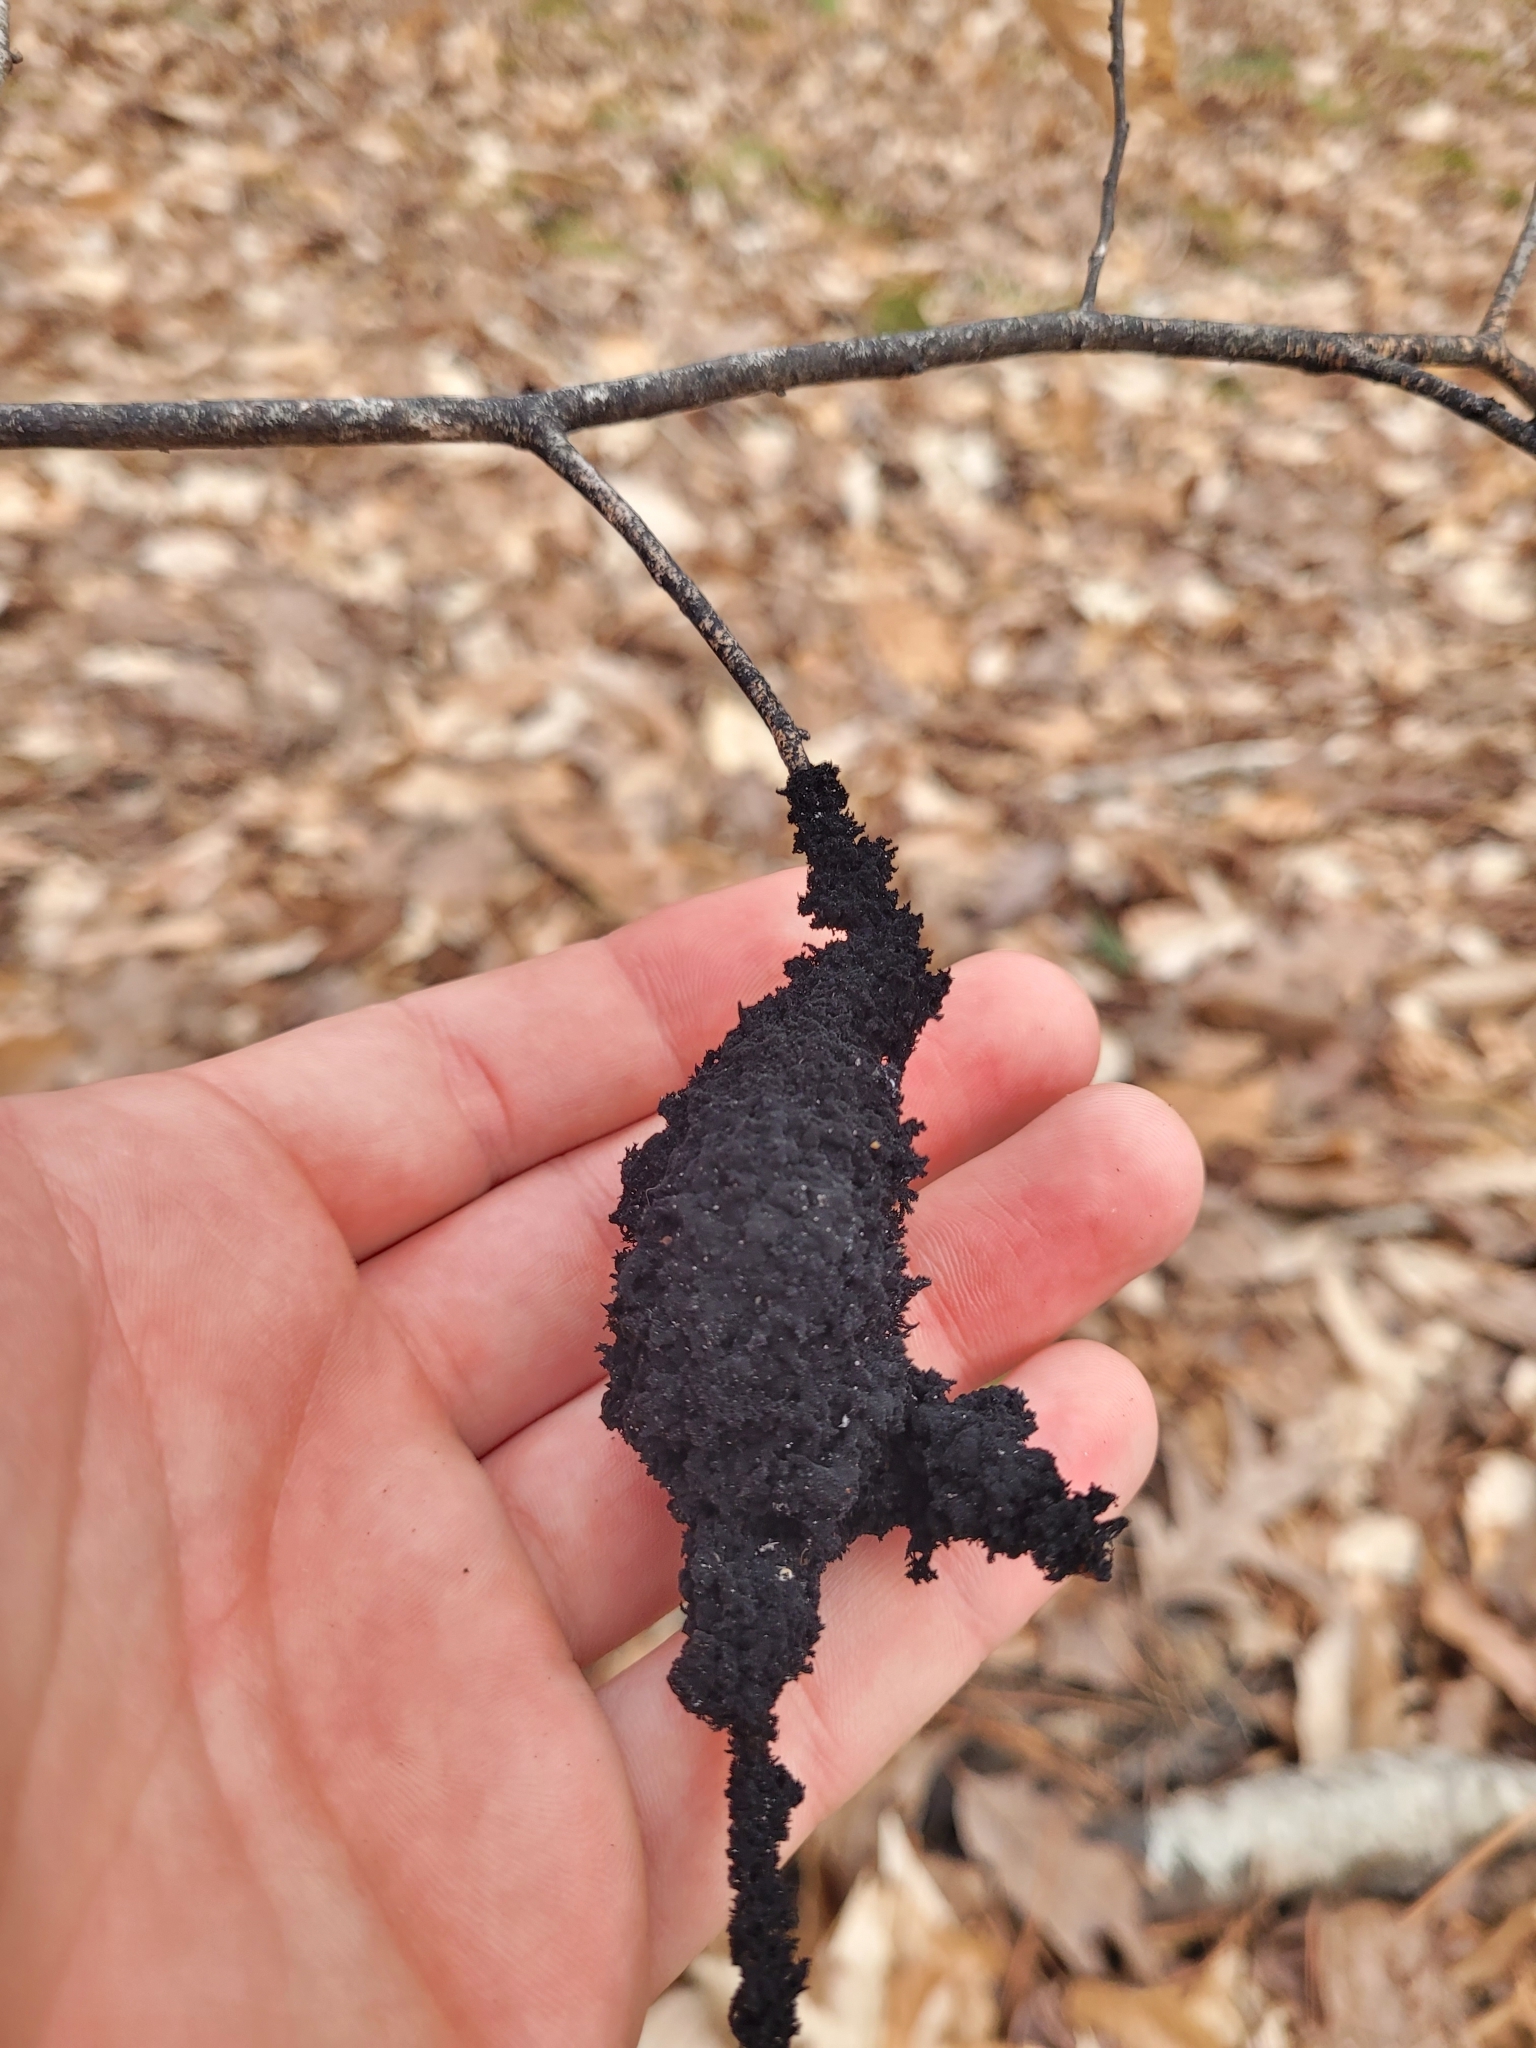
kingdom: Fungi
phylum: Ascomycota
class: Dothideomycetes
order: Capnodiales
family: Capnodiaceae
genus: Scorias
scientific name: Scorias spongiosa
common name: Black sooty mold
